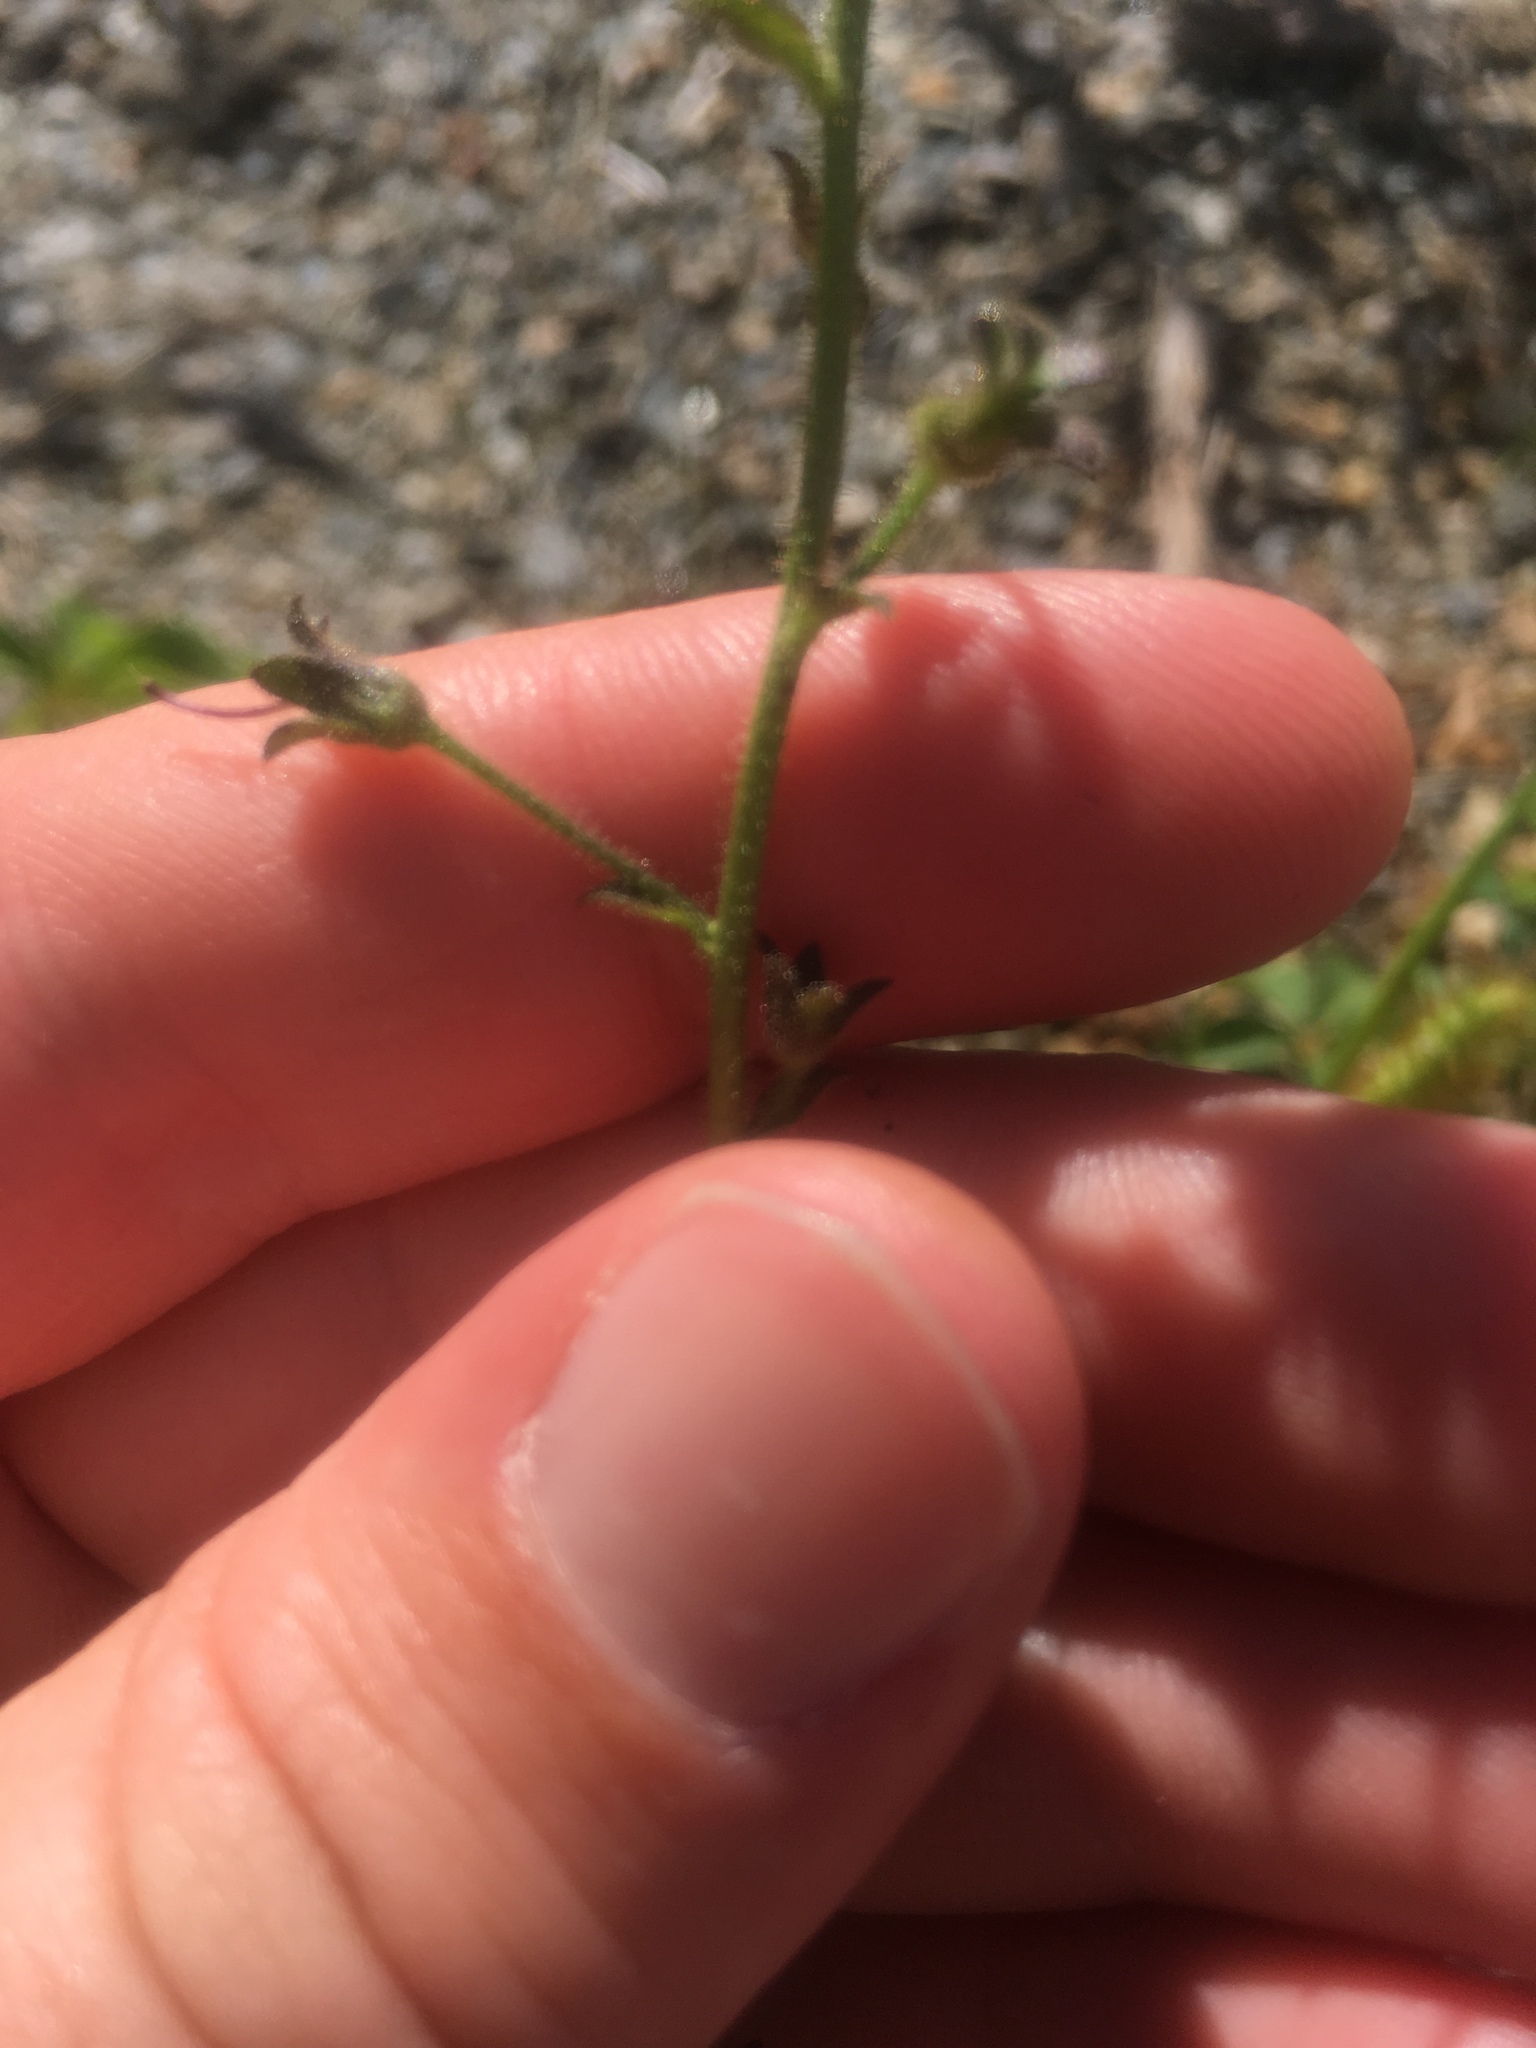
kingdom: Plantae
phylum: Tracheophyta
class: Magnoliopsida
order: Lamiales
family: Scrophulariaceae
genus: Verbascum
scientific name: Verbascum blattaria
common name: Moth mullein
